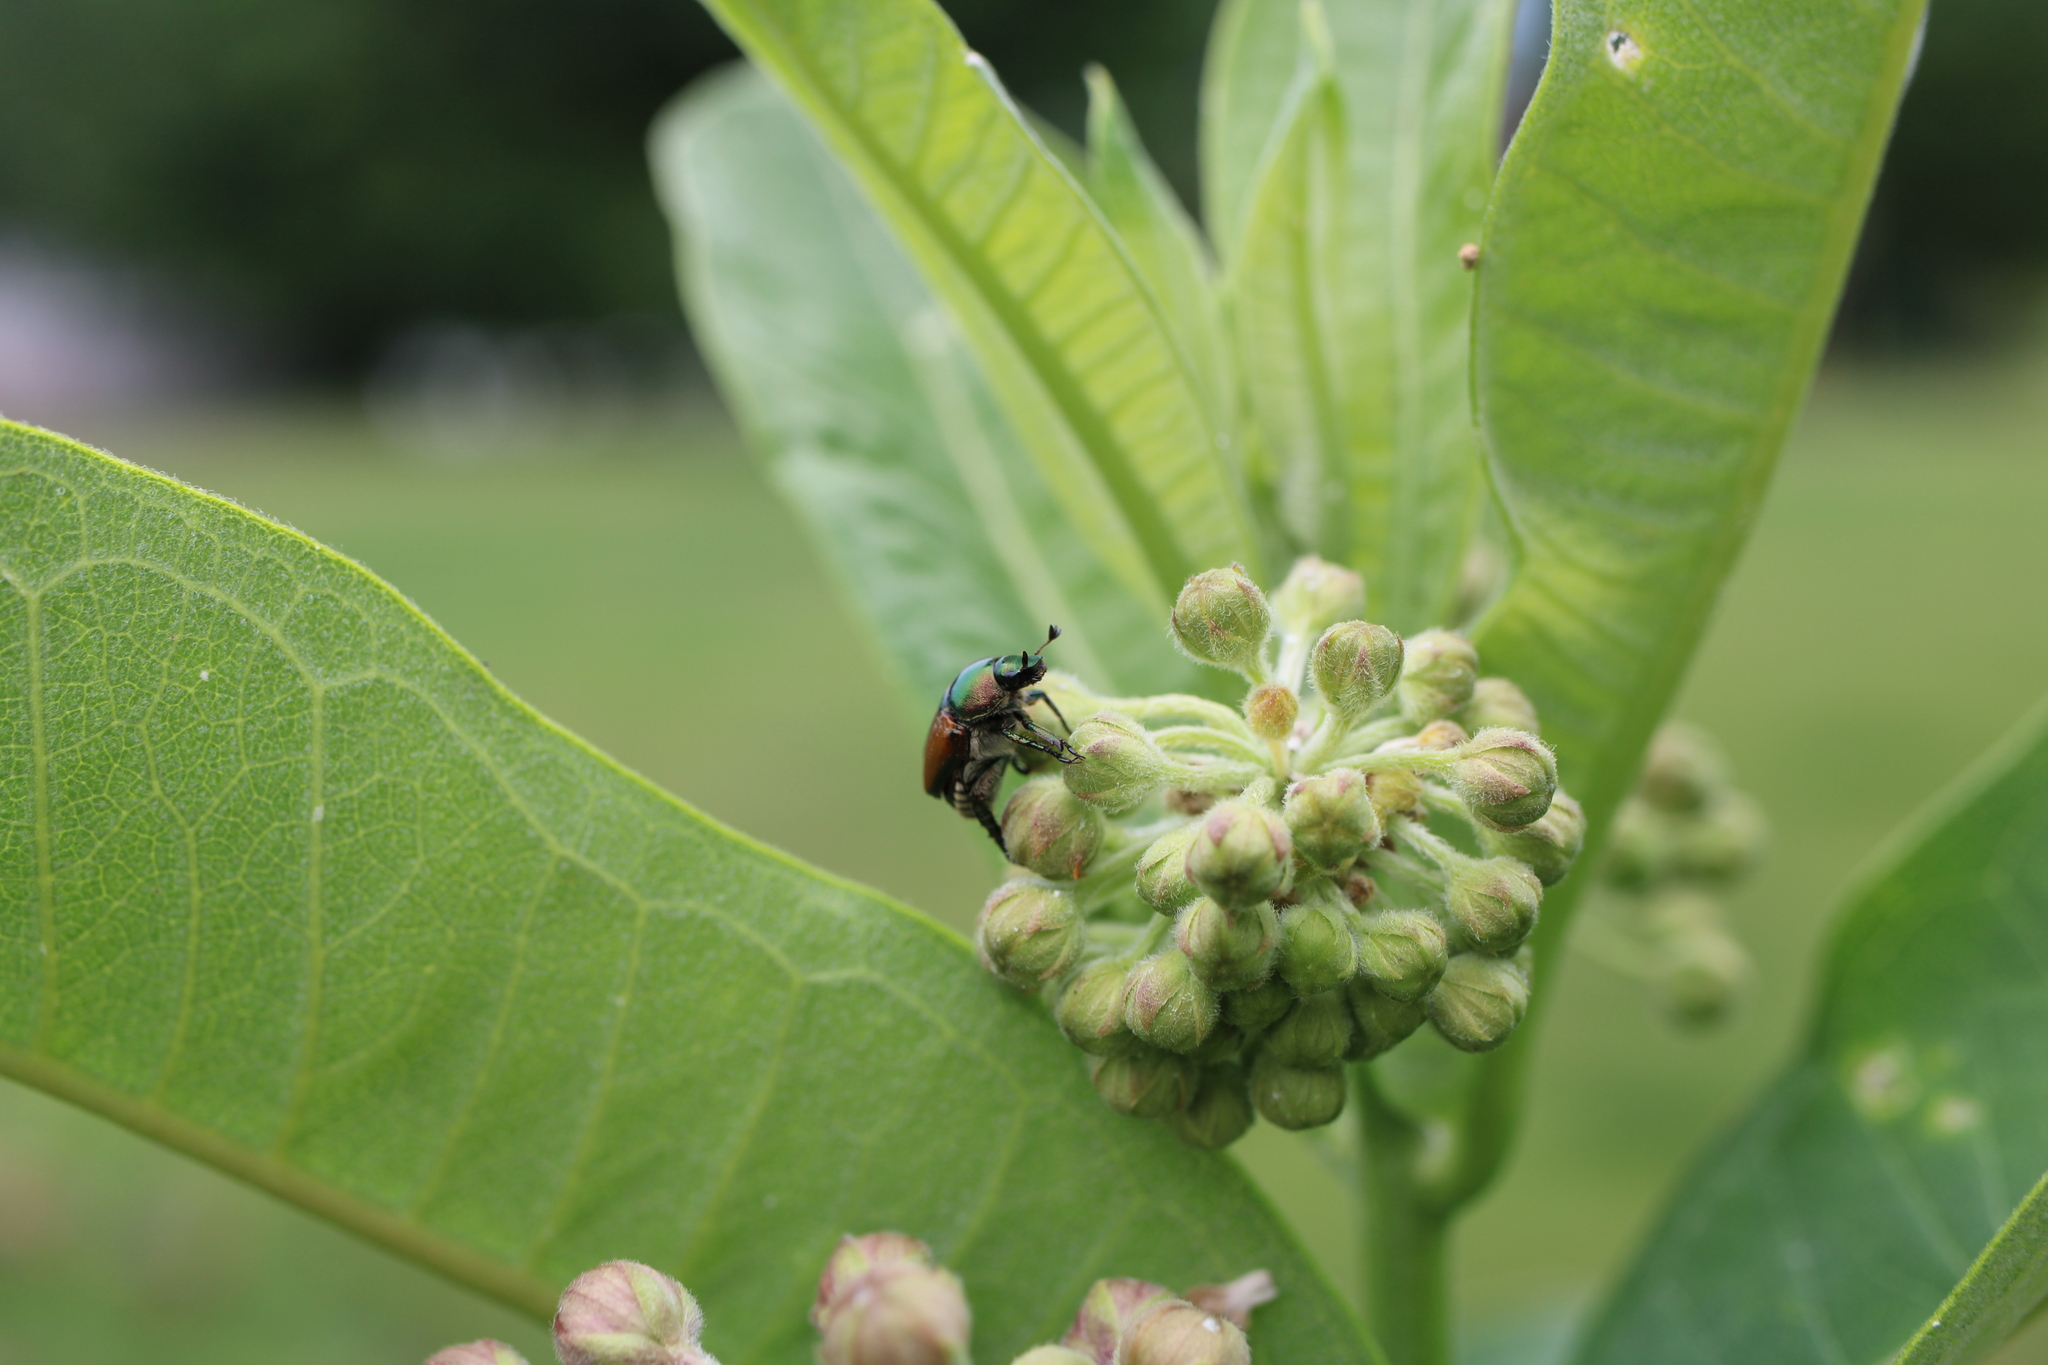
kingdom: Animalia
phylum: Arthropoda
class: Insecta
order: Coleoptera
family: Scarabaeidae
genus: Popillia
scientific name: Popillia japonica
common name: Japanese beetle
